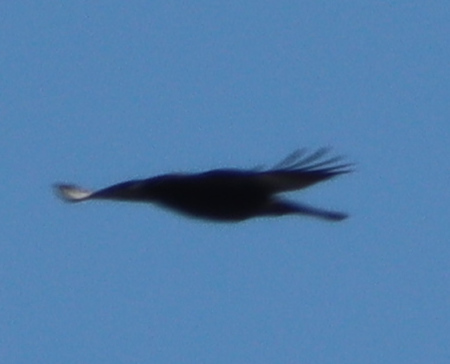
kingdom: Animalia
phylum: Chordata
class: Aves
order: Passeriformes
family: Corvidae
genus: Corvus
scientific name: Corvus corax
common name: Common raven
